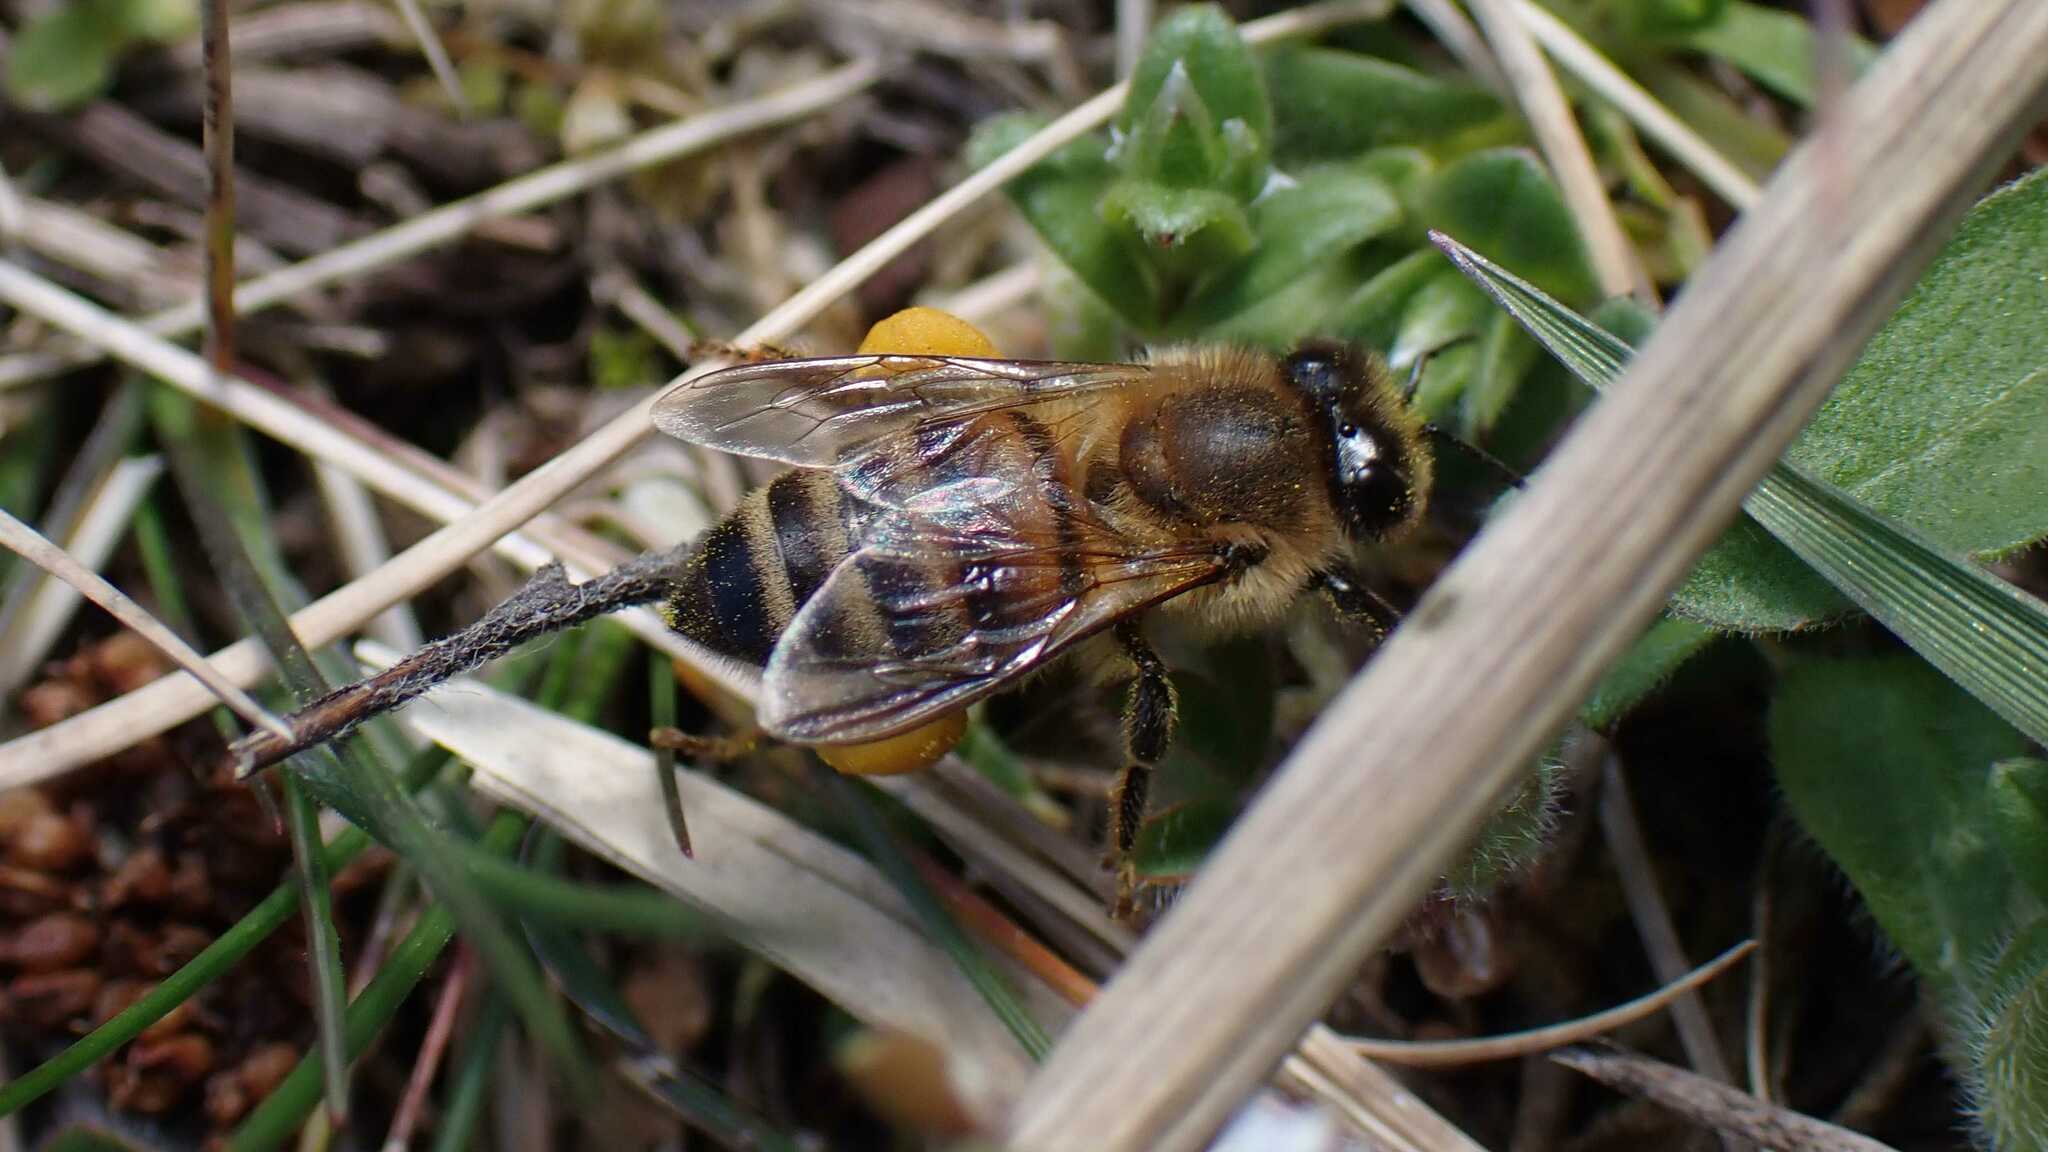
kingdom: Animalia
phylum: Arthropoda
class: Insecta
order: Hymenoptera
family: Apidae
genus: Apis
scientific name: Apis mellifera
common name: Honey bee
